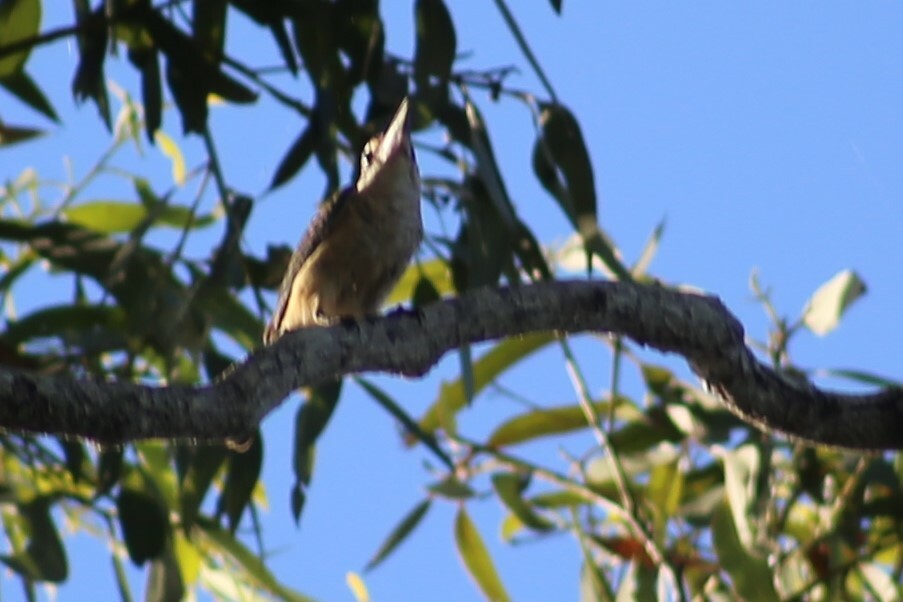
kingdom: Animalia
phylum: Chordata
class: Aves
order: Coraciiformes
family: Alcedinidae
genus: Todiramphus
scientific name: Todiramphus sanctus
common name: Sacred kingfisher
